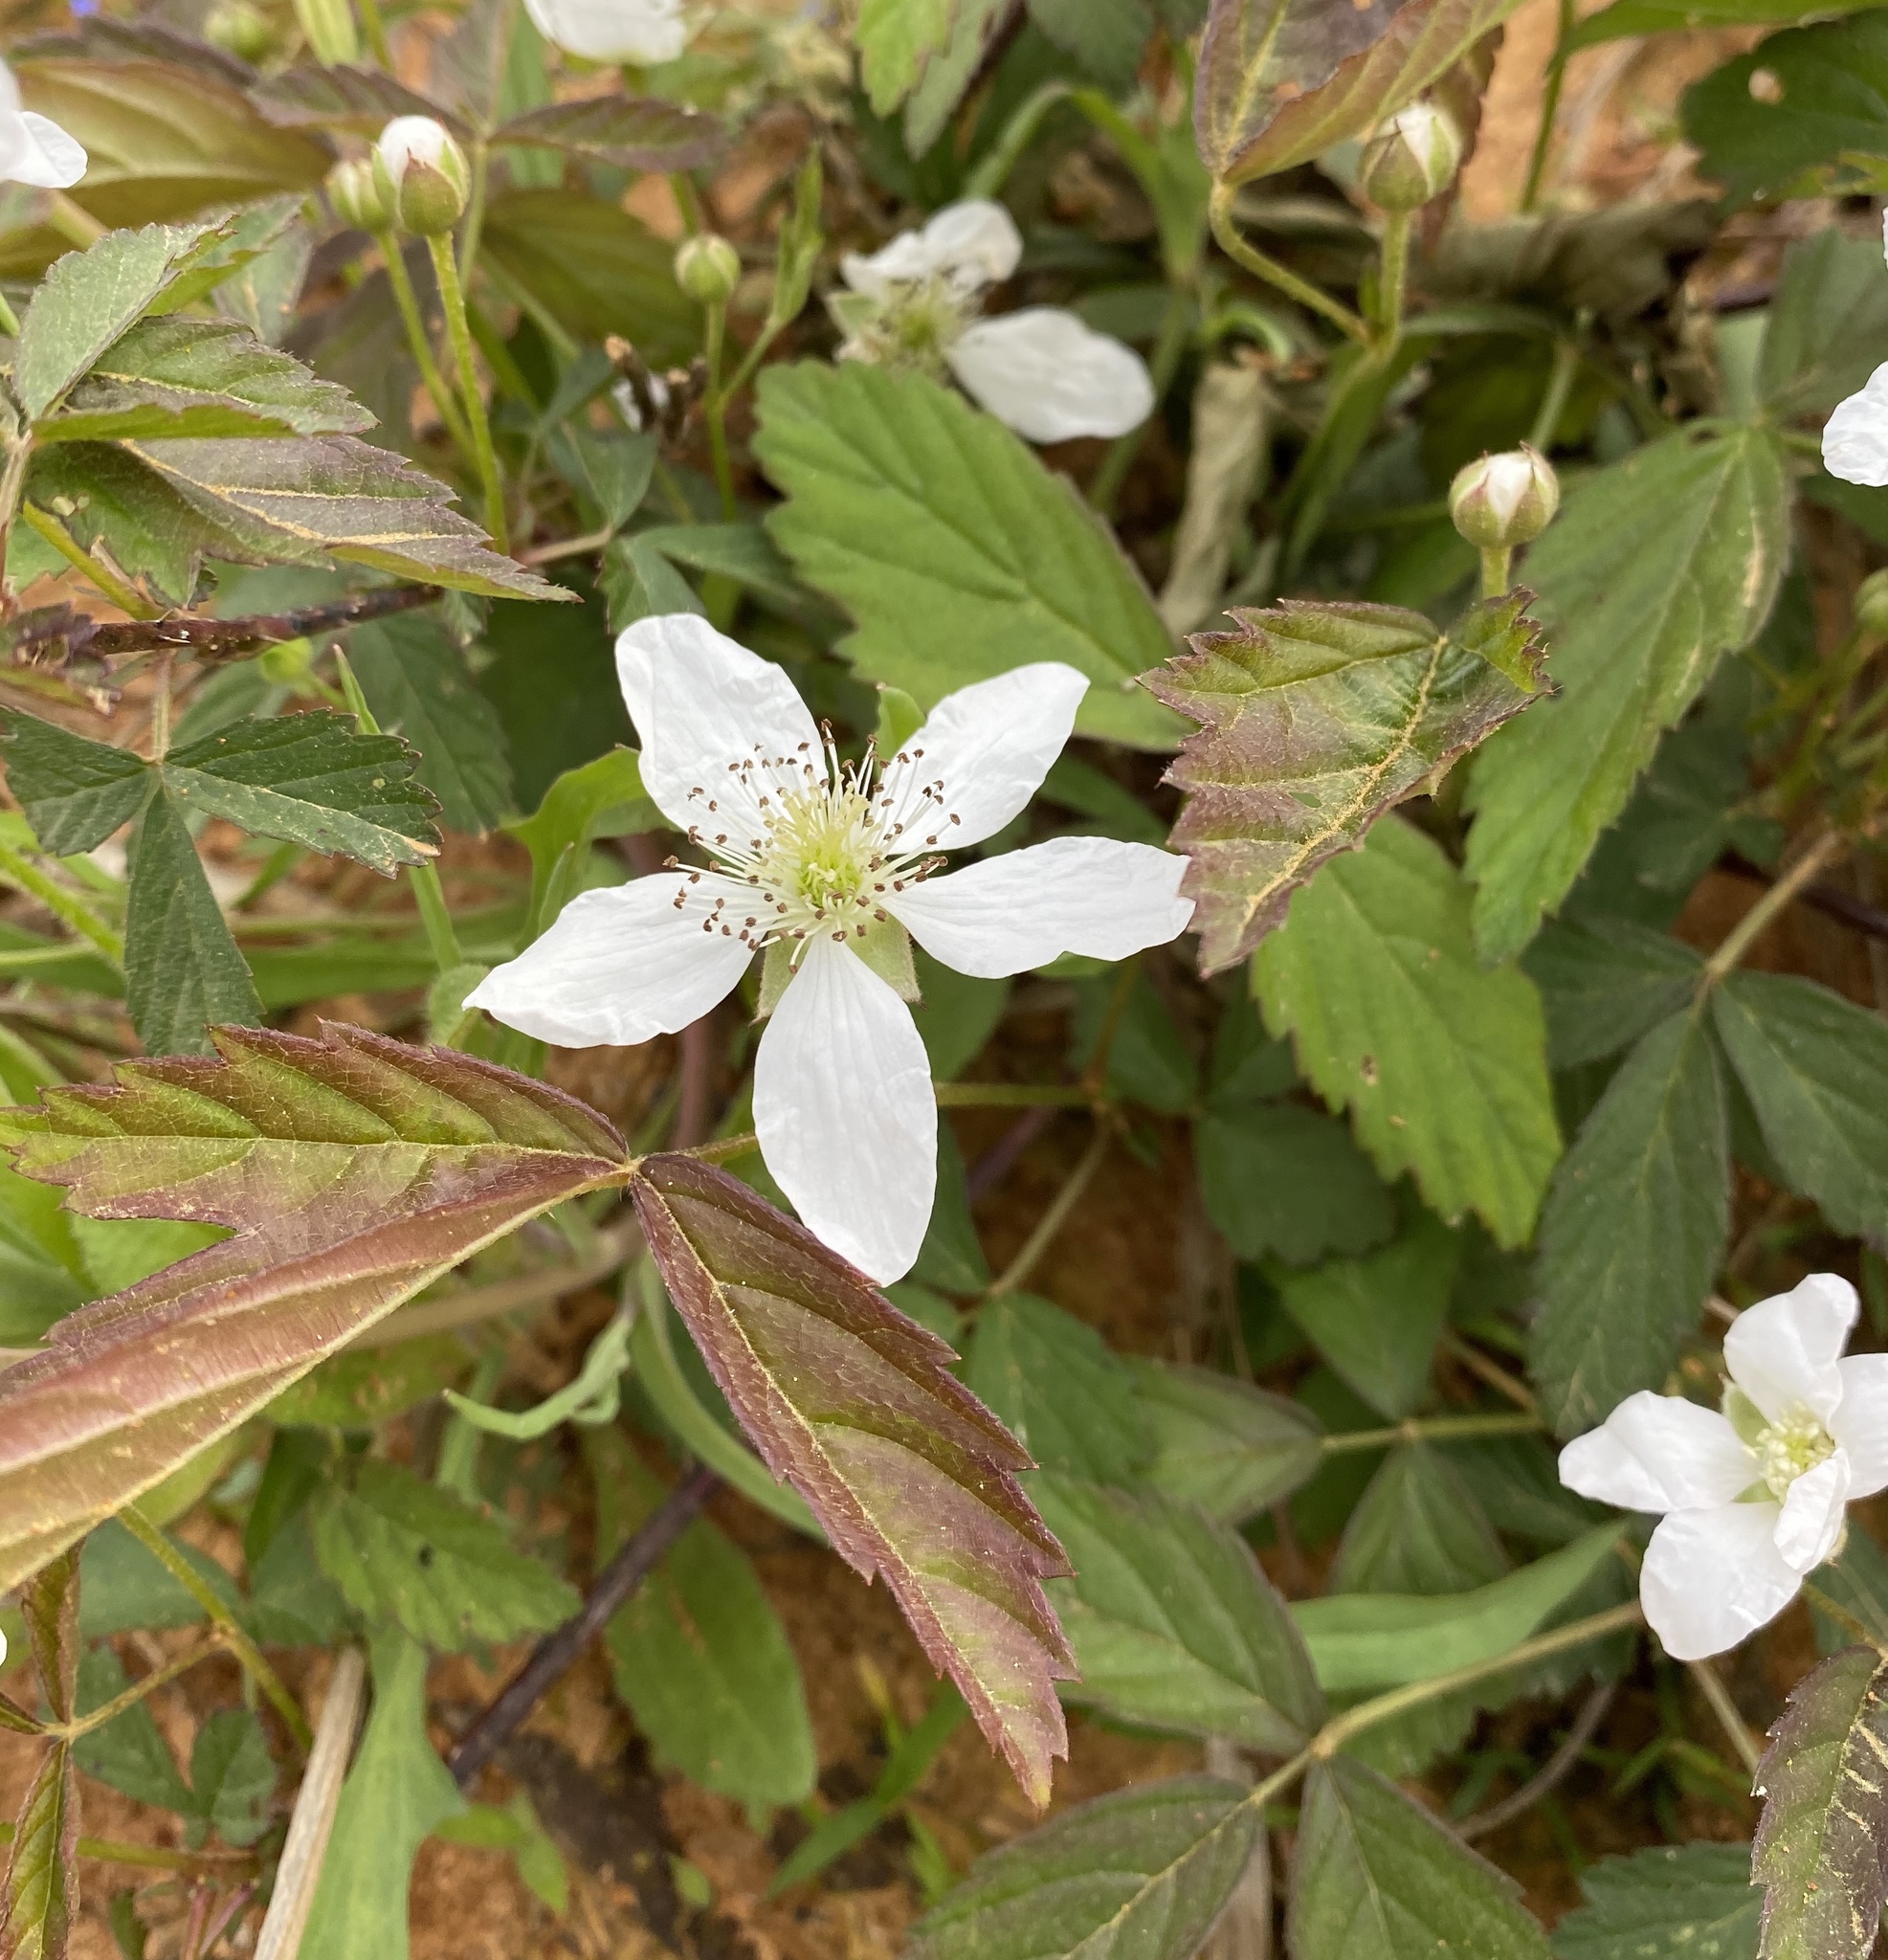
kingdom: Plantae
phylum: Tracheophyta
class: Magnoliopsida
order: Rosales
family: Rosaceae
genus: Rubus
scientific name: Rubus trivialis
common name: Southern dewberry
